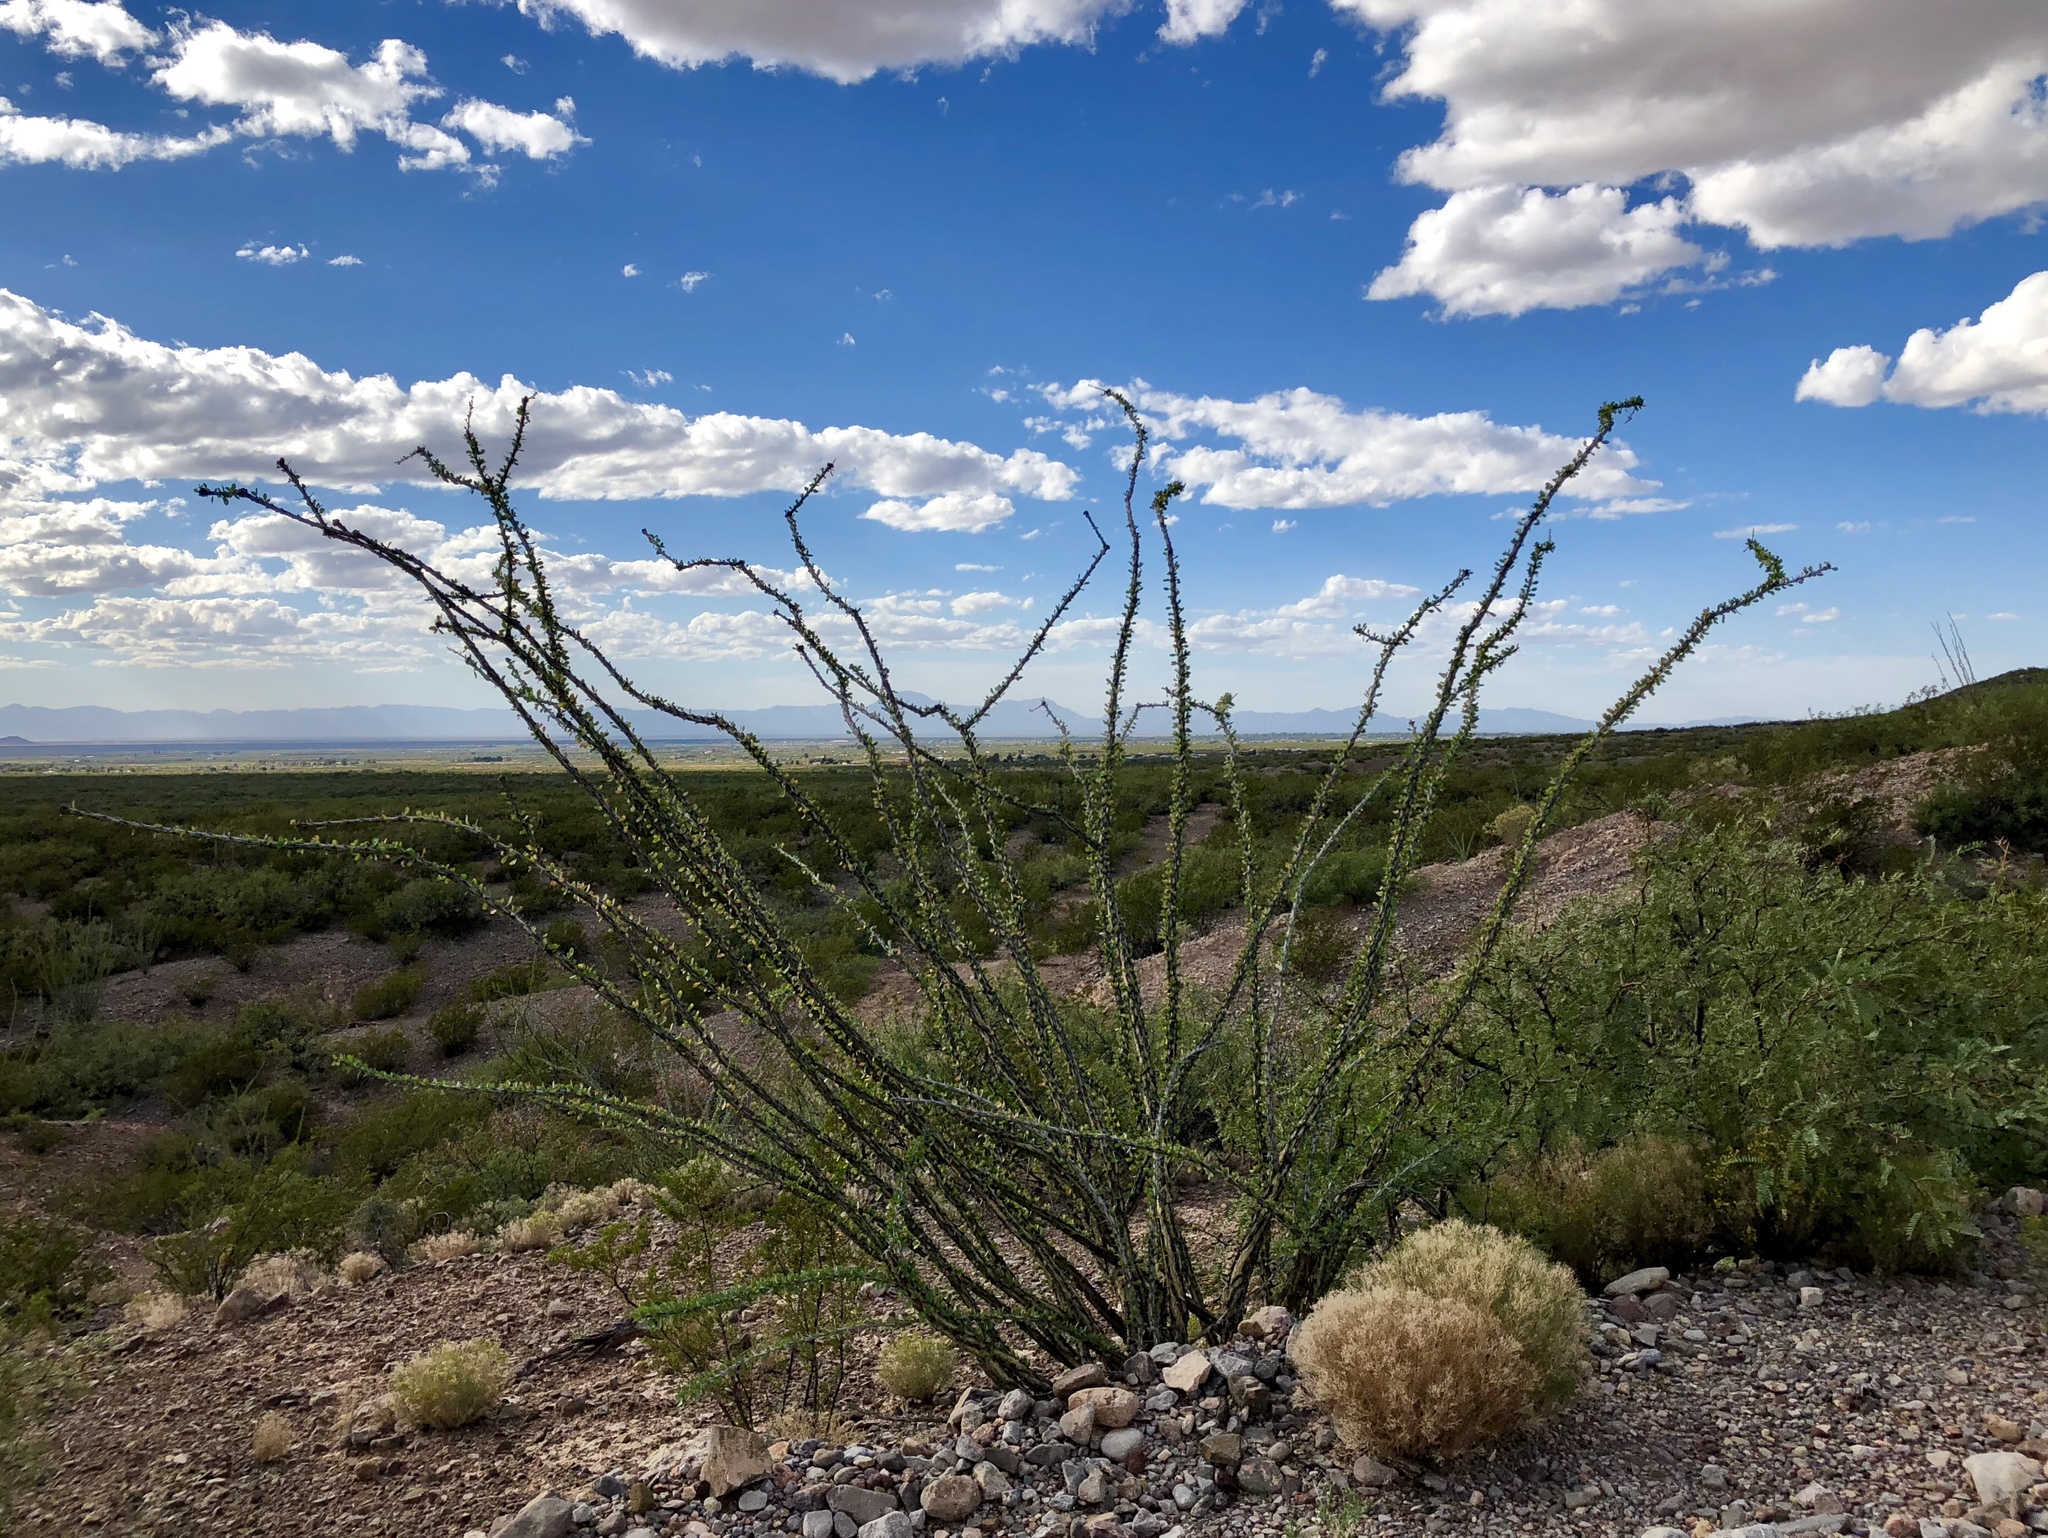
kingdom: Plantae
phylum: Tracheophyta
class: Magnoliopsida
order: Ericales
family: Fouquieriaceae
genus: Fouquieria
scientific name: Fouquieria splendens
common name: Vine-cactus
